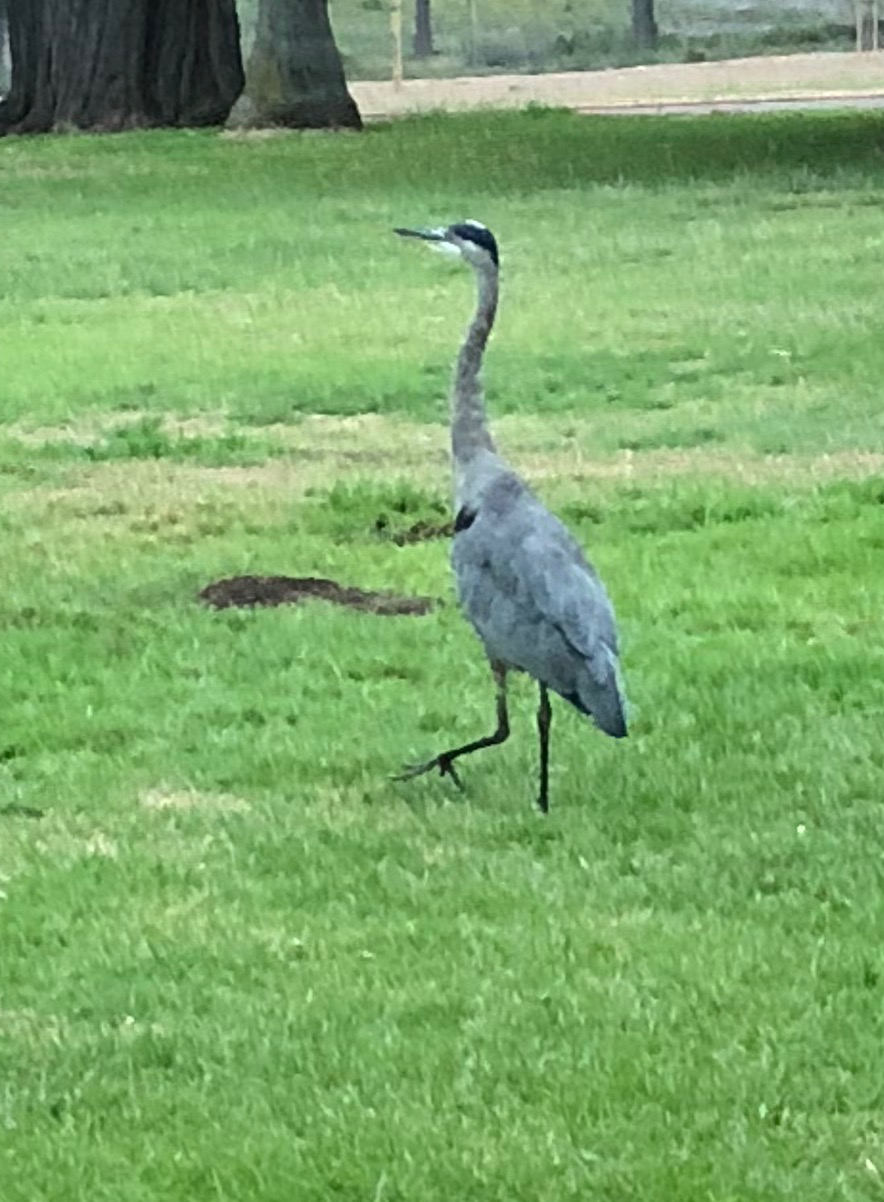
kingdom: Animalia
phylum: Chordata
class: Aves
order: Pelecaniformes
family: Ardeidae
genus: Ardea
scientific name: Ardea herodias
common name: Great blue heron
